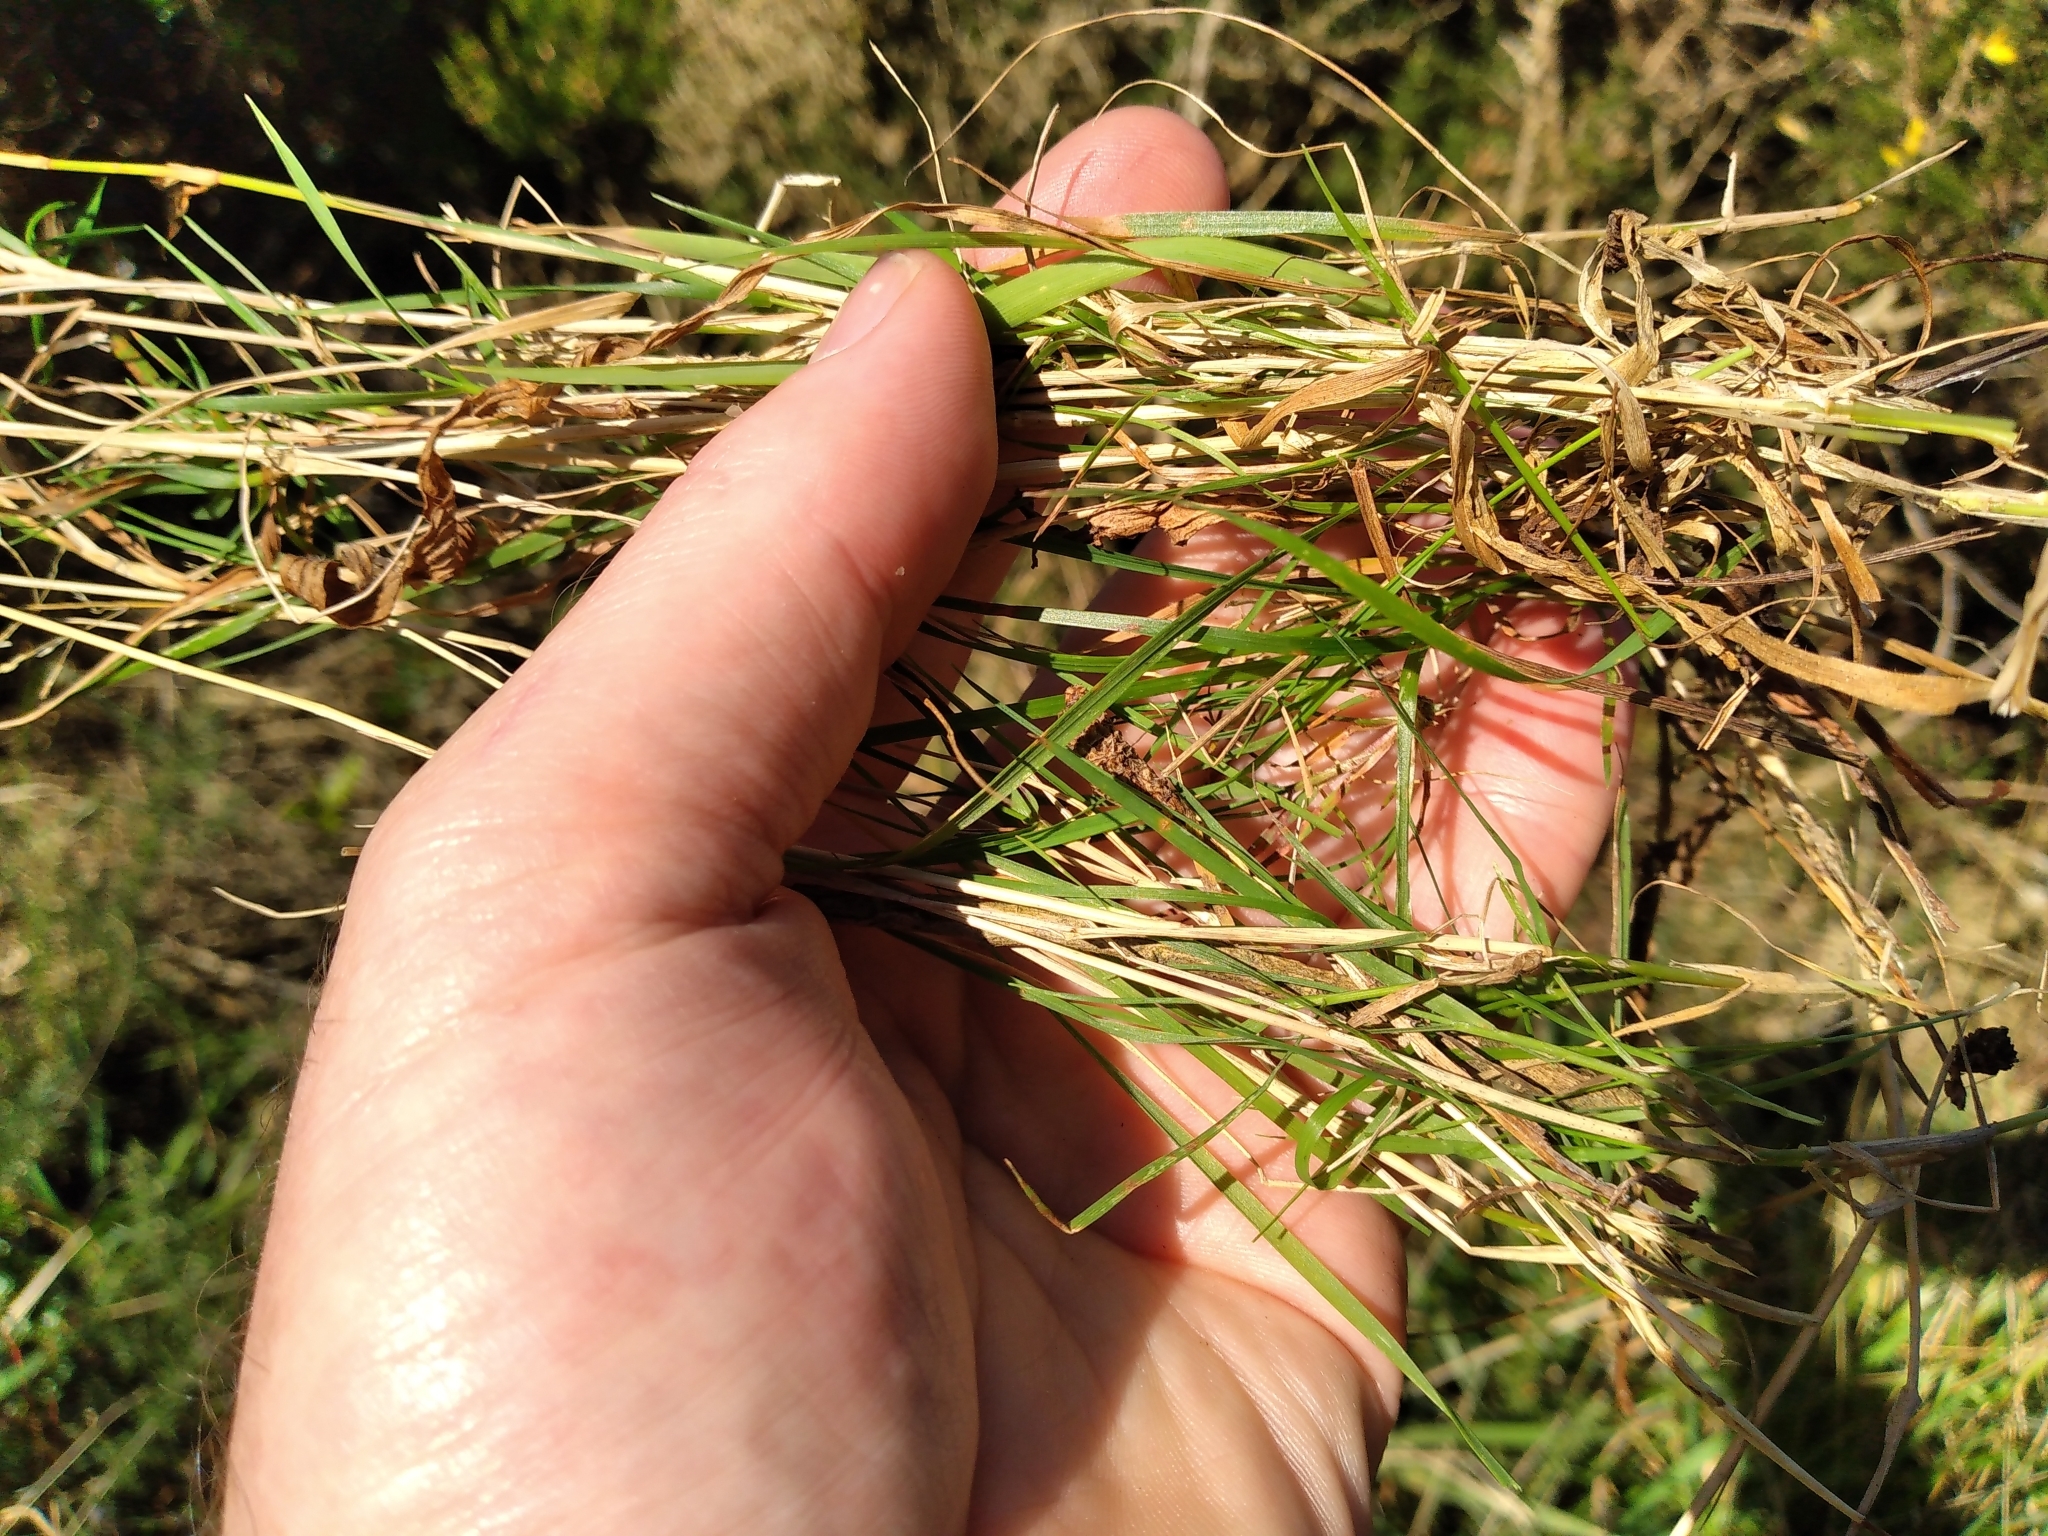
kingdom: Plantae
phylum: Tracheophyta
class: Liliopsida
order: Poales
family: Poaceae
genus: Agrostis
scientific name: Agrostis capillaris
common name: Colonial bentgrass
